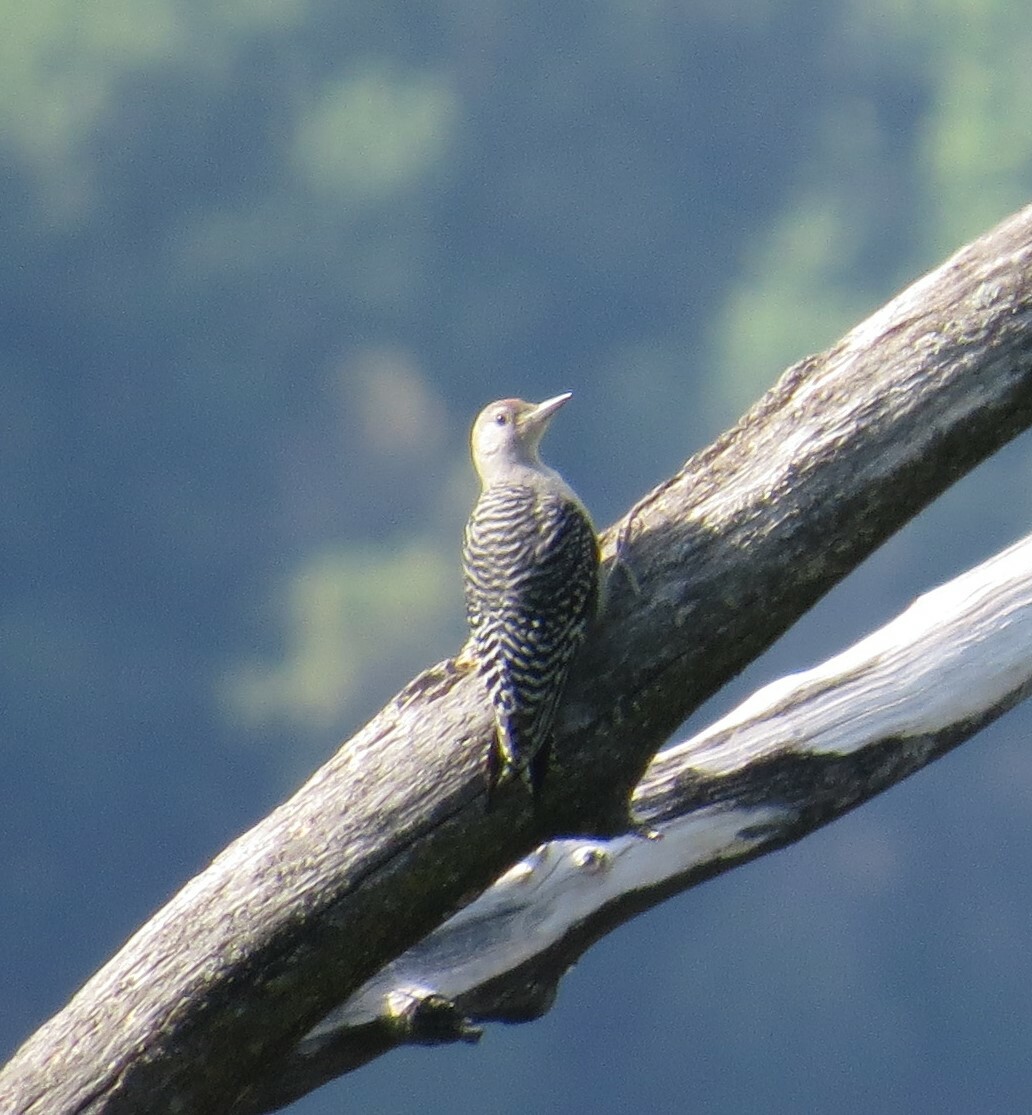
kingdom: Animalia
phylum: Chordata
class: Aves
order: Piciformes
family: Picidae
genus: Melanerpes
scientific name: Melanerpes carolinus
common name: Red-bellied woodpecker
